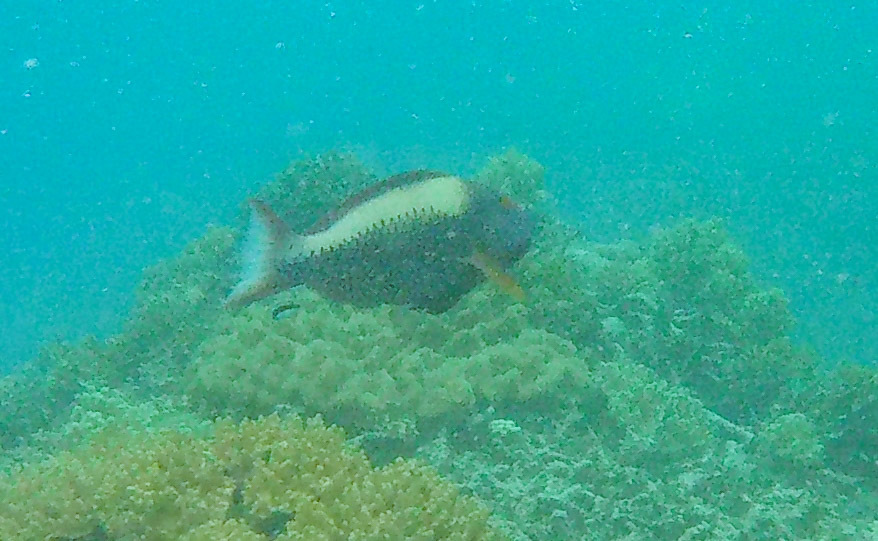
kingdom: Animalia
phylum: Chordata
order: Perciformes
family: Scaridae
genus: Cetoscarus
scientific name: Cetoscarus ocellatus
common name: Bicolor parrotfish
